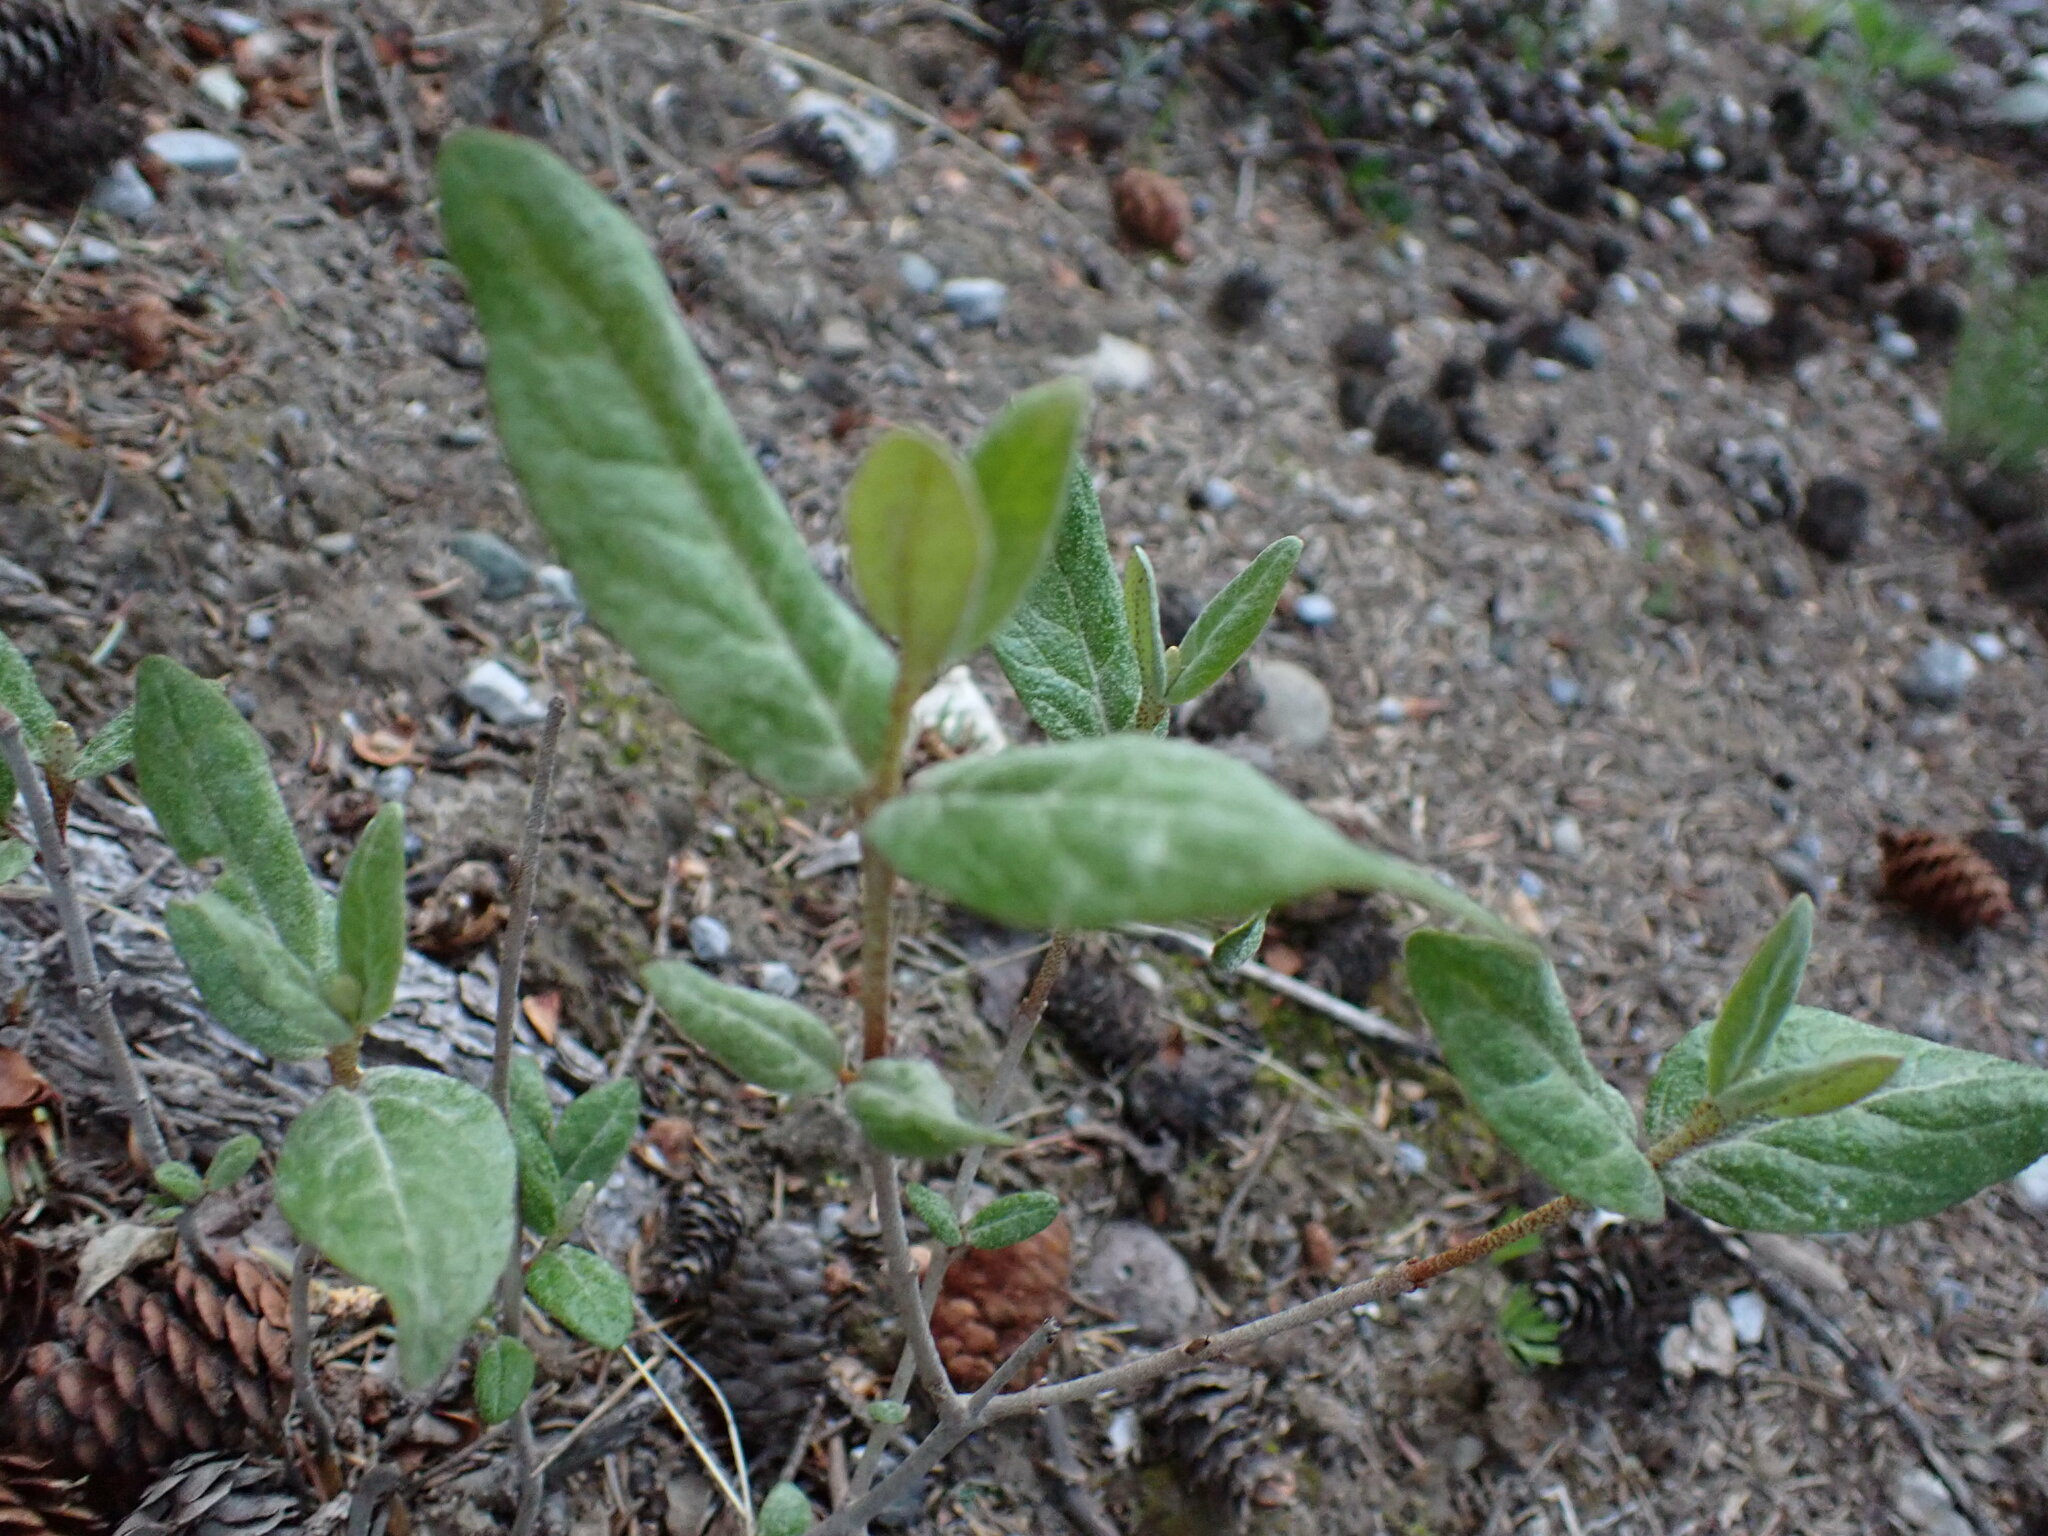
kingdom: Plantae
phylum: Tracheophyta
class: Magnoliopsida
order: Rosales
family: Elaeagnaceae
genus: Shepherdia
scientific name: Shepherdia canadensis
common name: Soapberry
